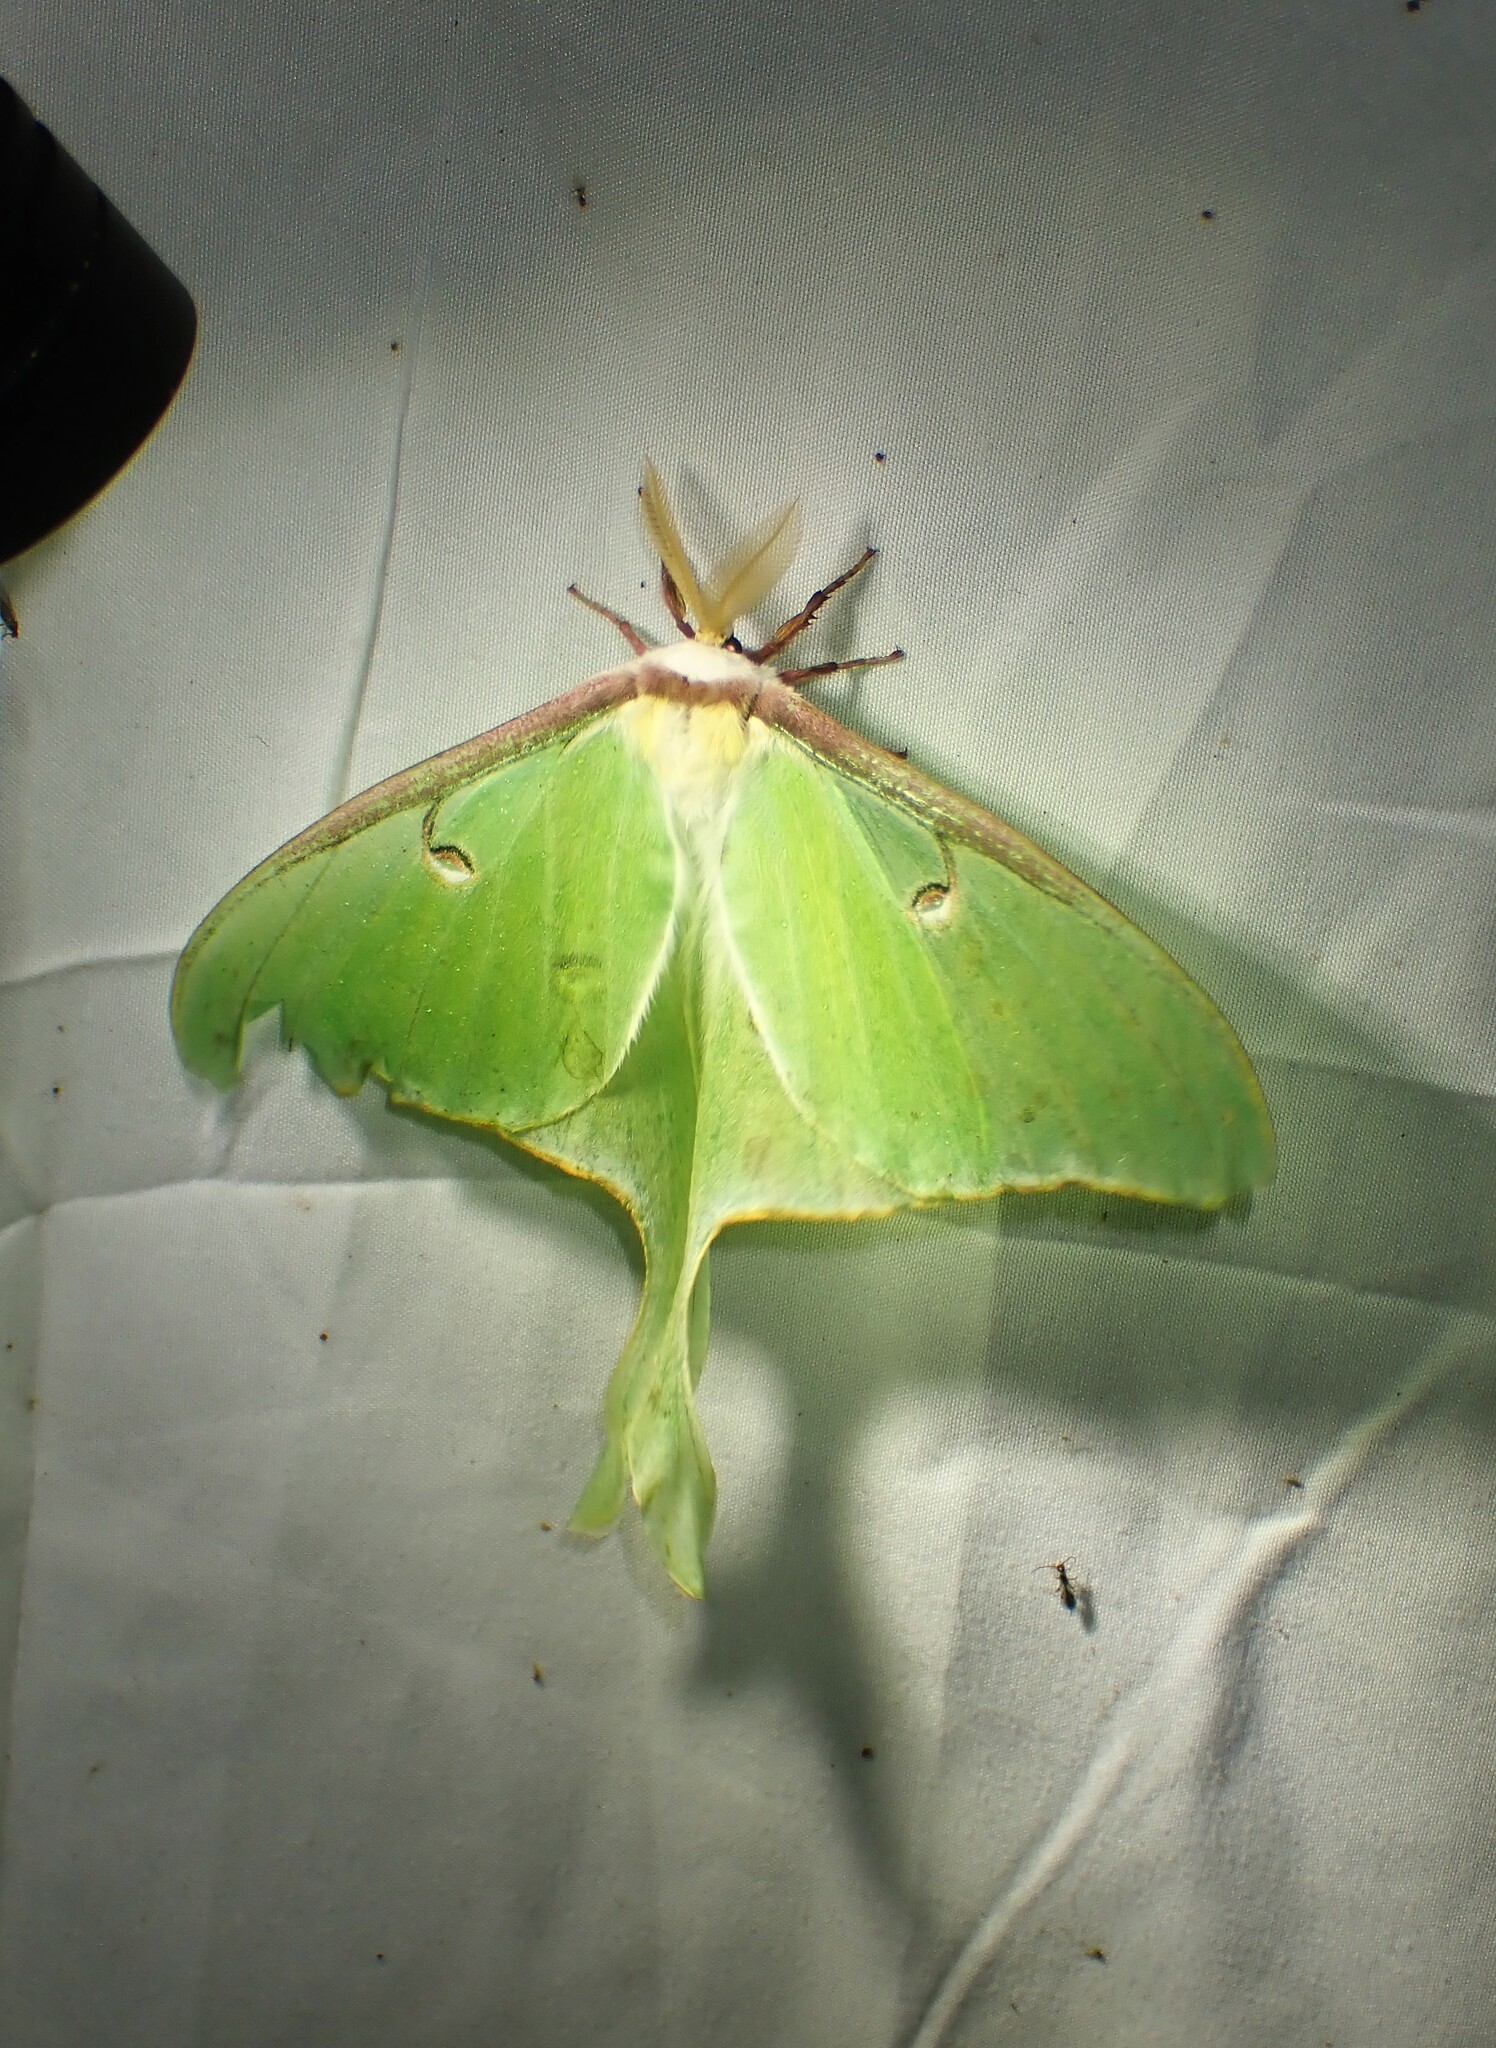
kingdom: Animalia
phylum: Arthropoda
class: Insecta
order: Lepidoptera
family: Saturniidae
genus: Actias
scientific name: Actias luna
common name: Luna moth
